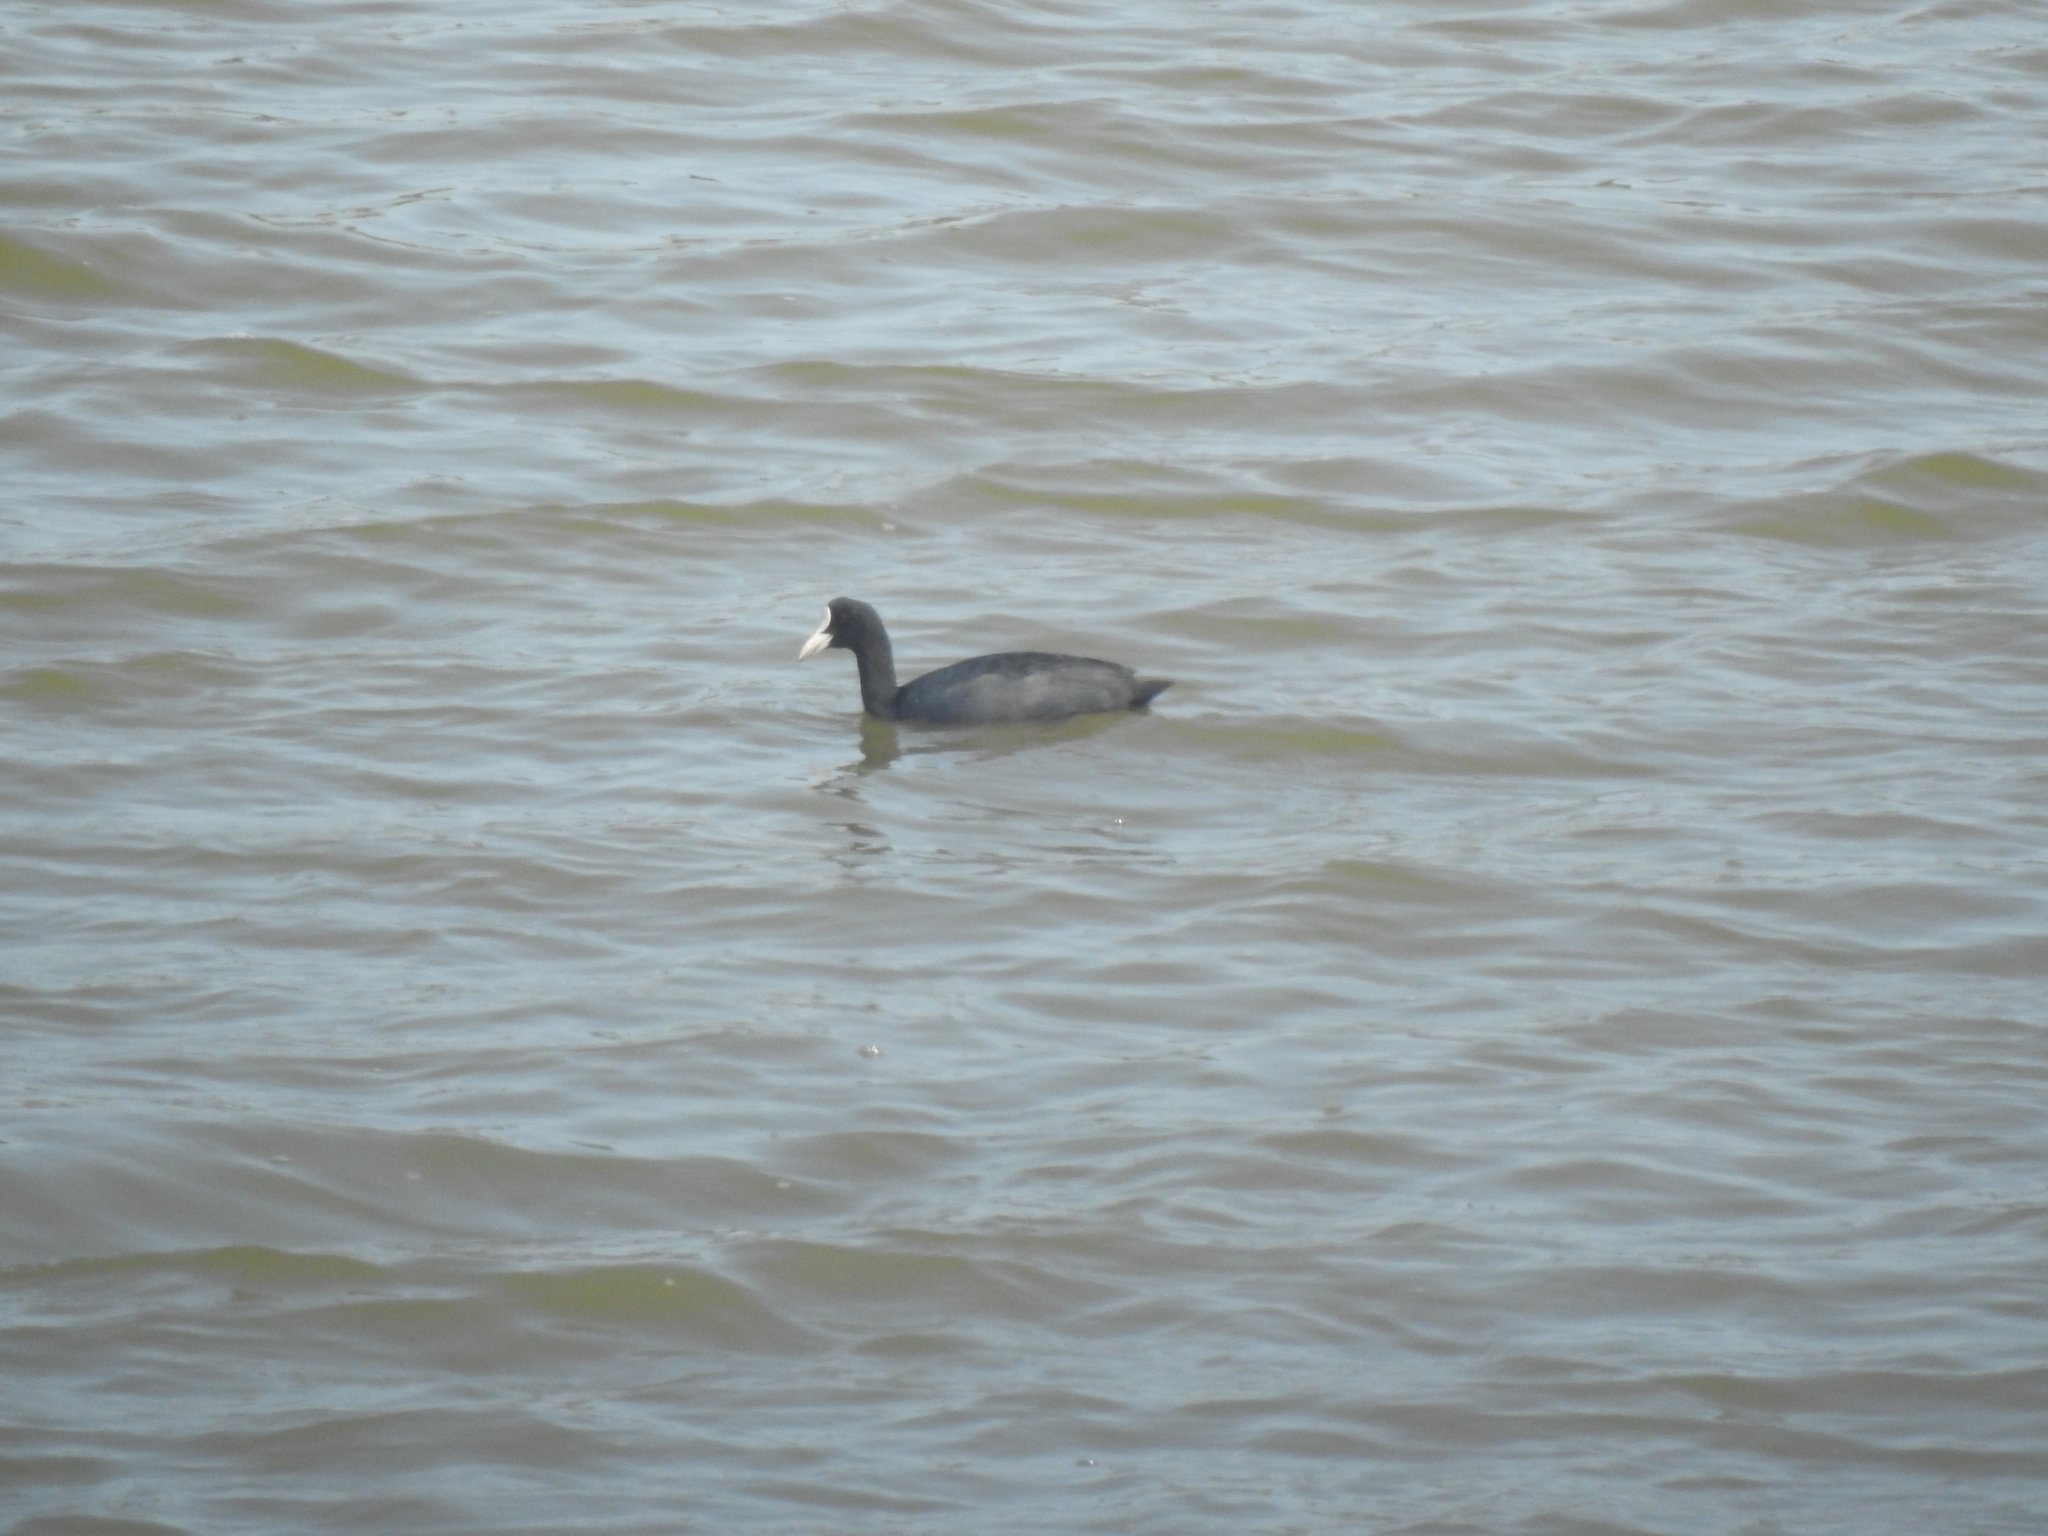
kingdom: Animalia
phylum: Chordata
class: Aves
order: Gruiformes
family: Rallidae
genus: Fulica
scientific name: Fulica atra
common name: Eurasian coot
